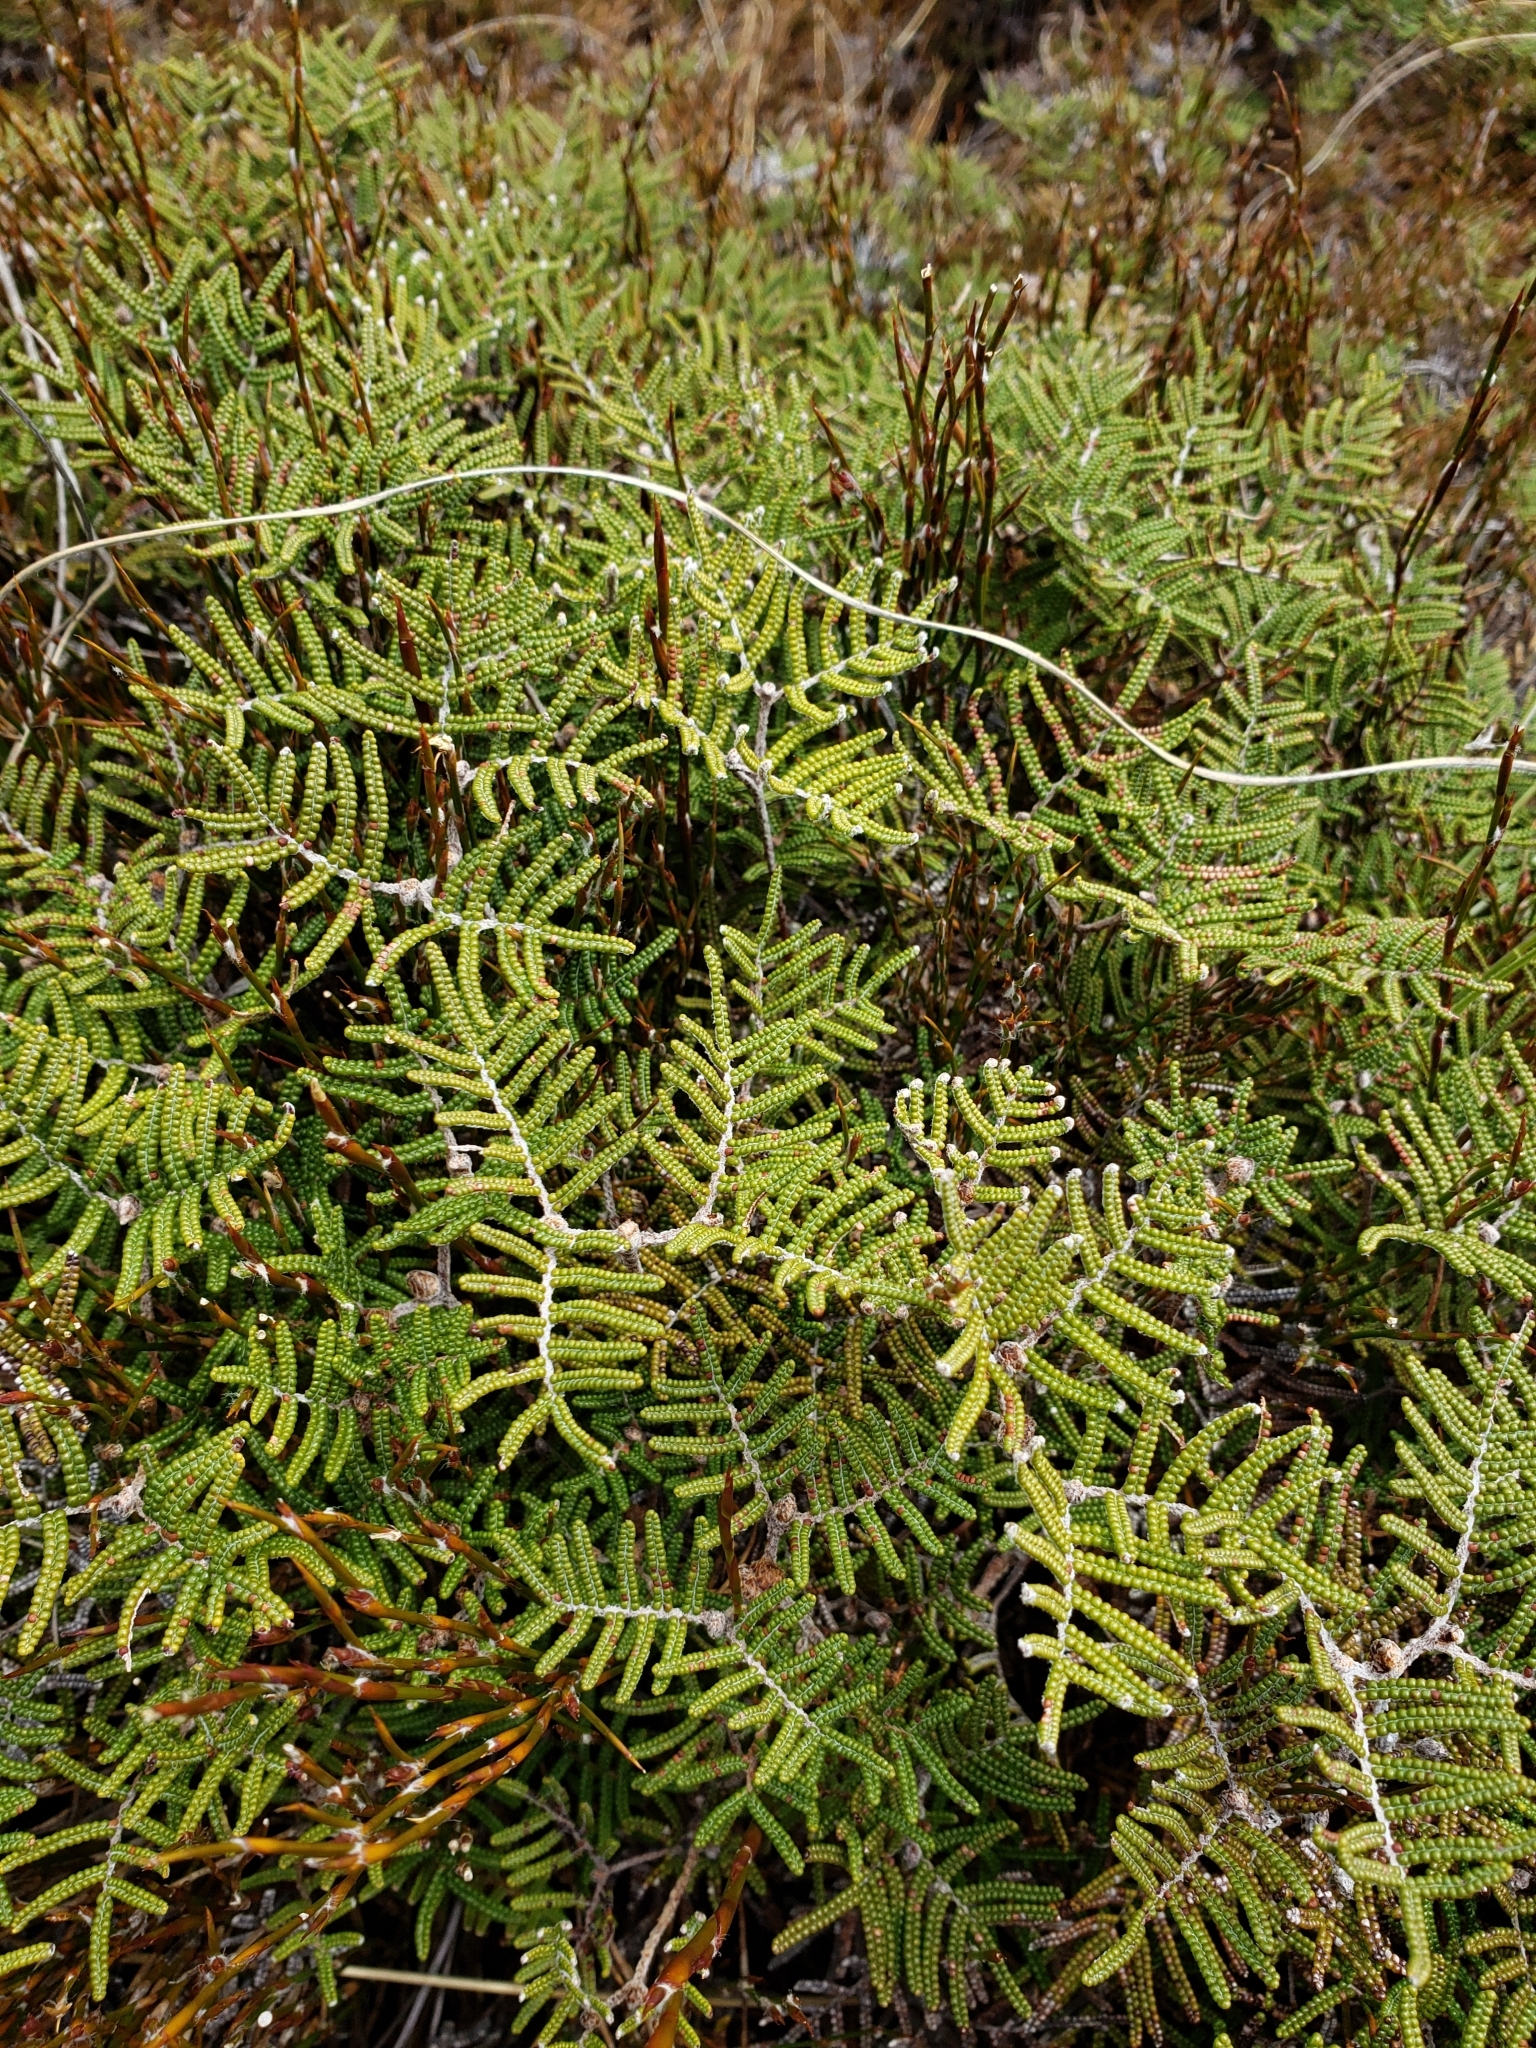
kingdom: Plantae
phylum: Tracheophyta
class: Polypodiopsida
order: Gleicheniales
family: Gleicheniaceae
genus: Gleichenia
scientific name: Gleichenia alpina
